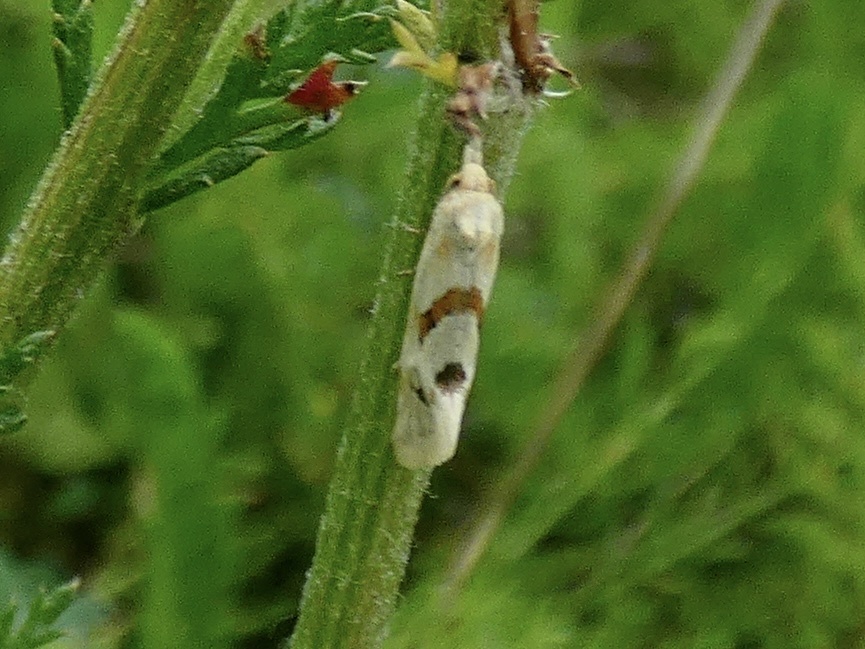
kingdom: Animalia
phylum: Arthropoda
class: Insecta
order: Lepidoptera
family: Tortricidae
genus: Aethes
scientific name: Aethes smeathmanniana
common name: Yarrow conch
